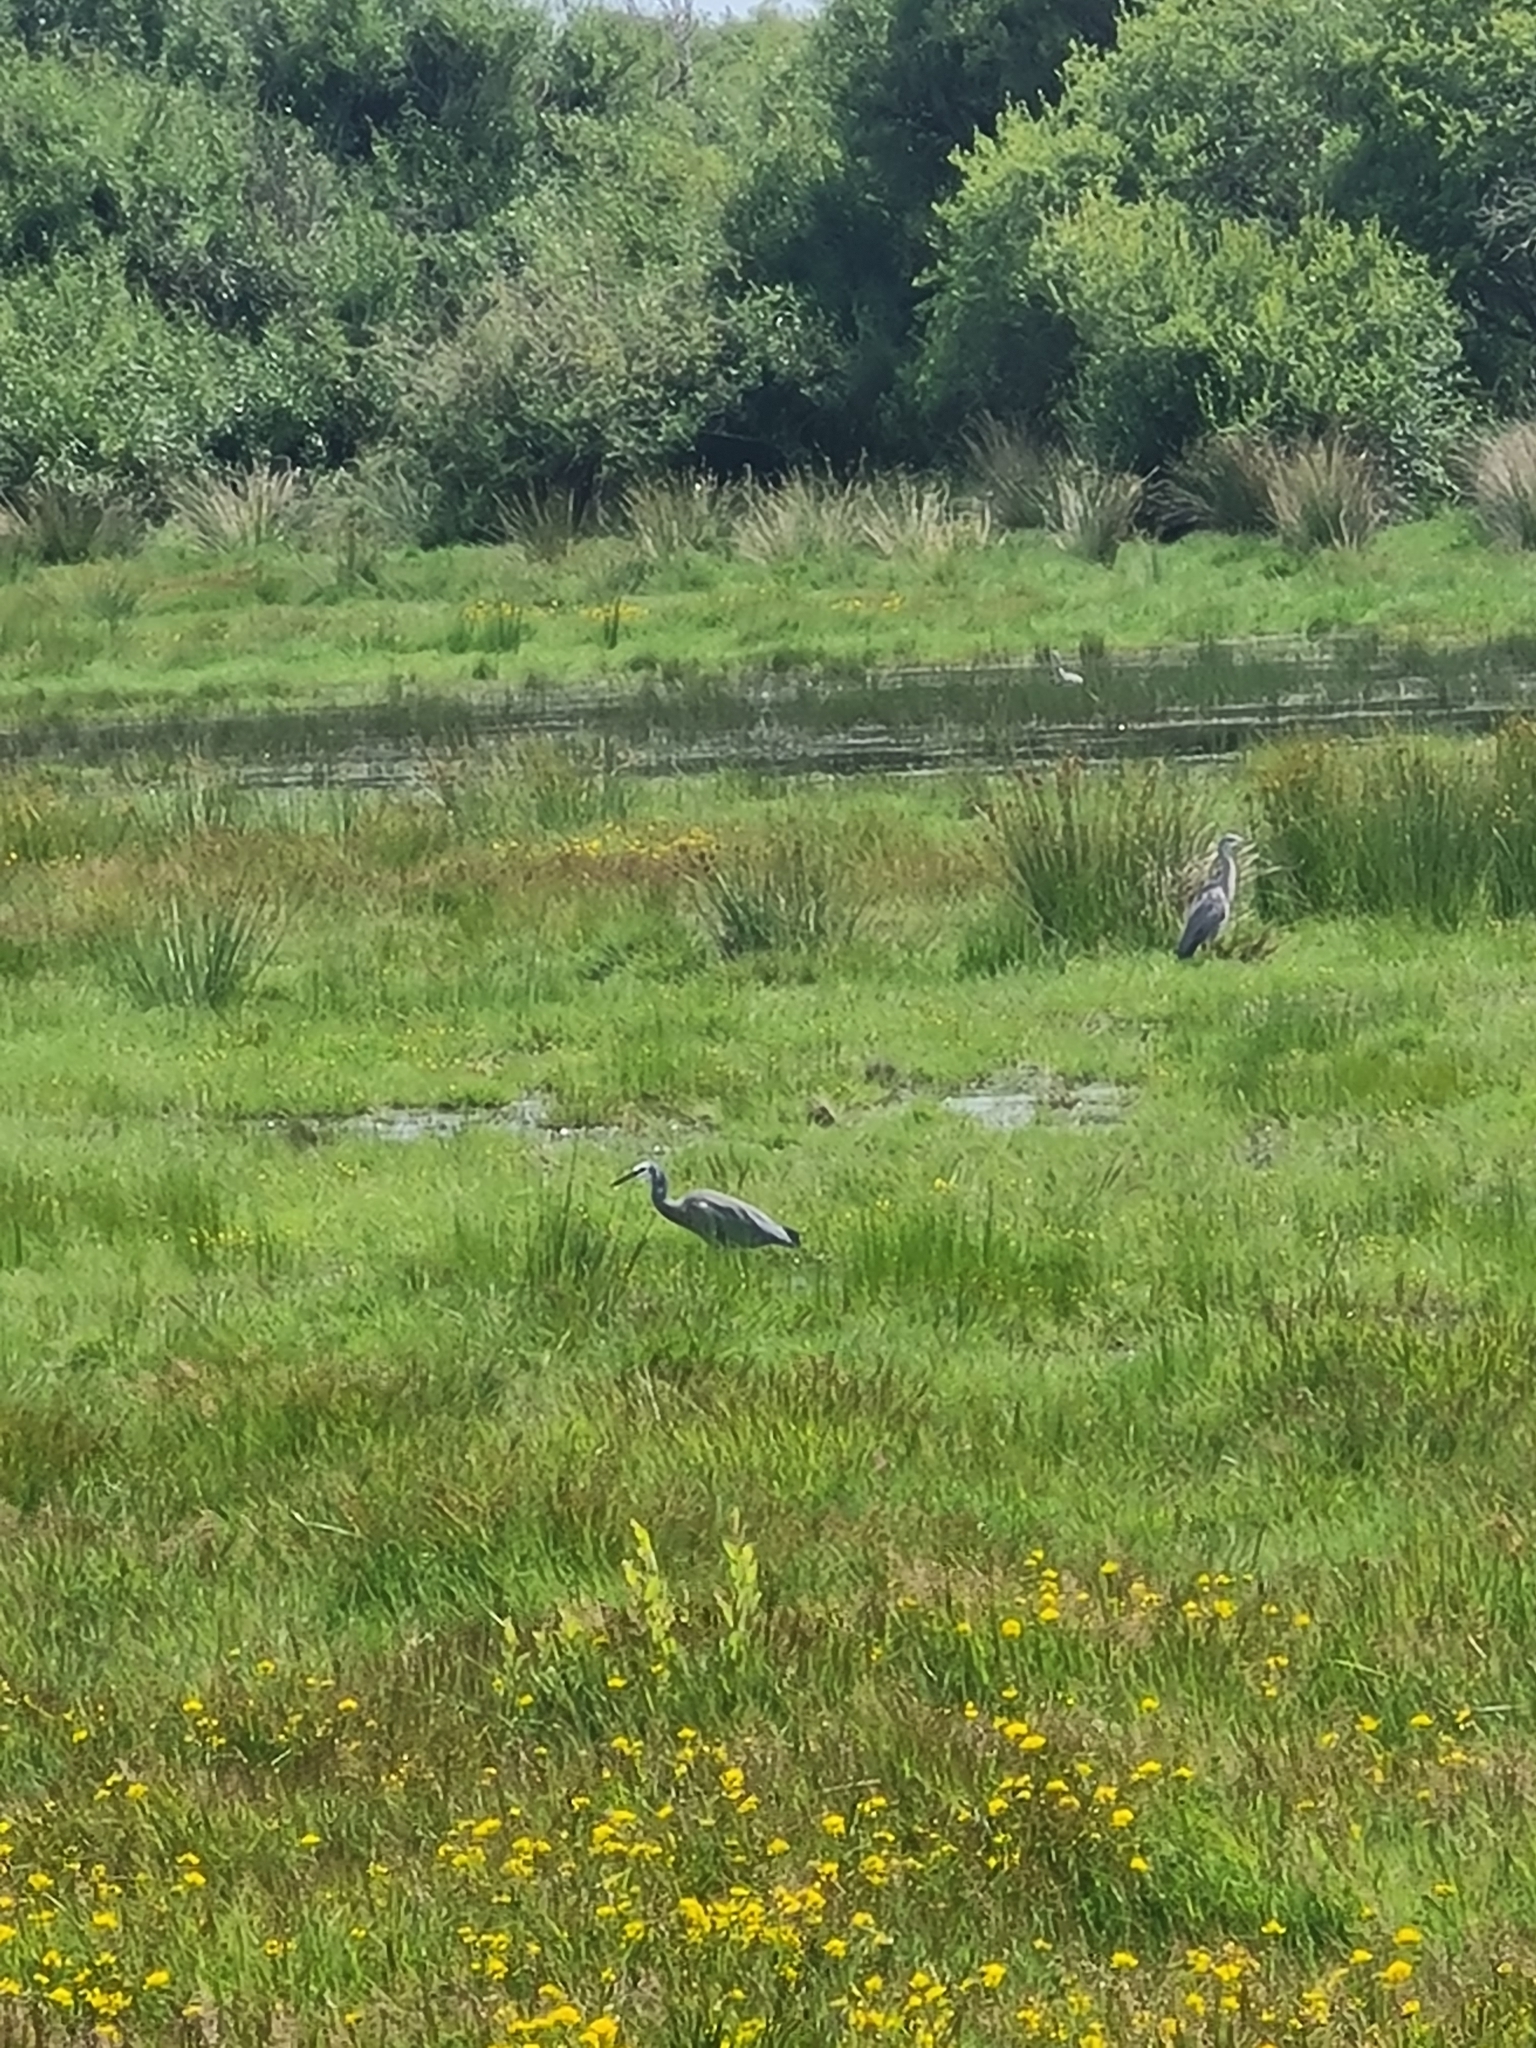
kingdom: Animalia
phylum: Chordata
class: Aves
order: Pelecaniformes
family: Ardeidae
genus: Egretta
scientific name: Egretta novaehollandiae
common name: White-faced heron
